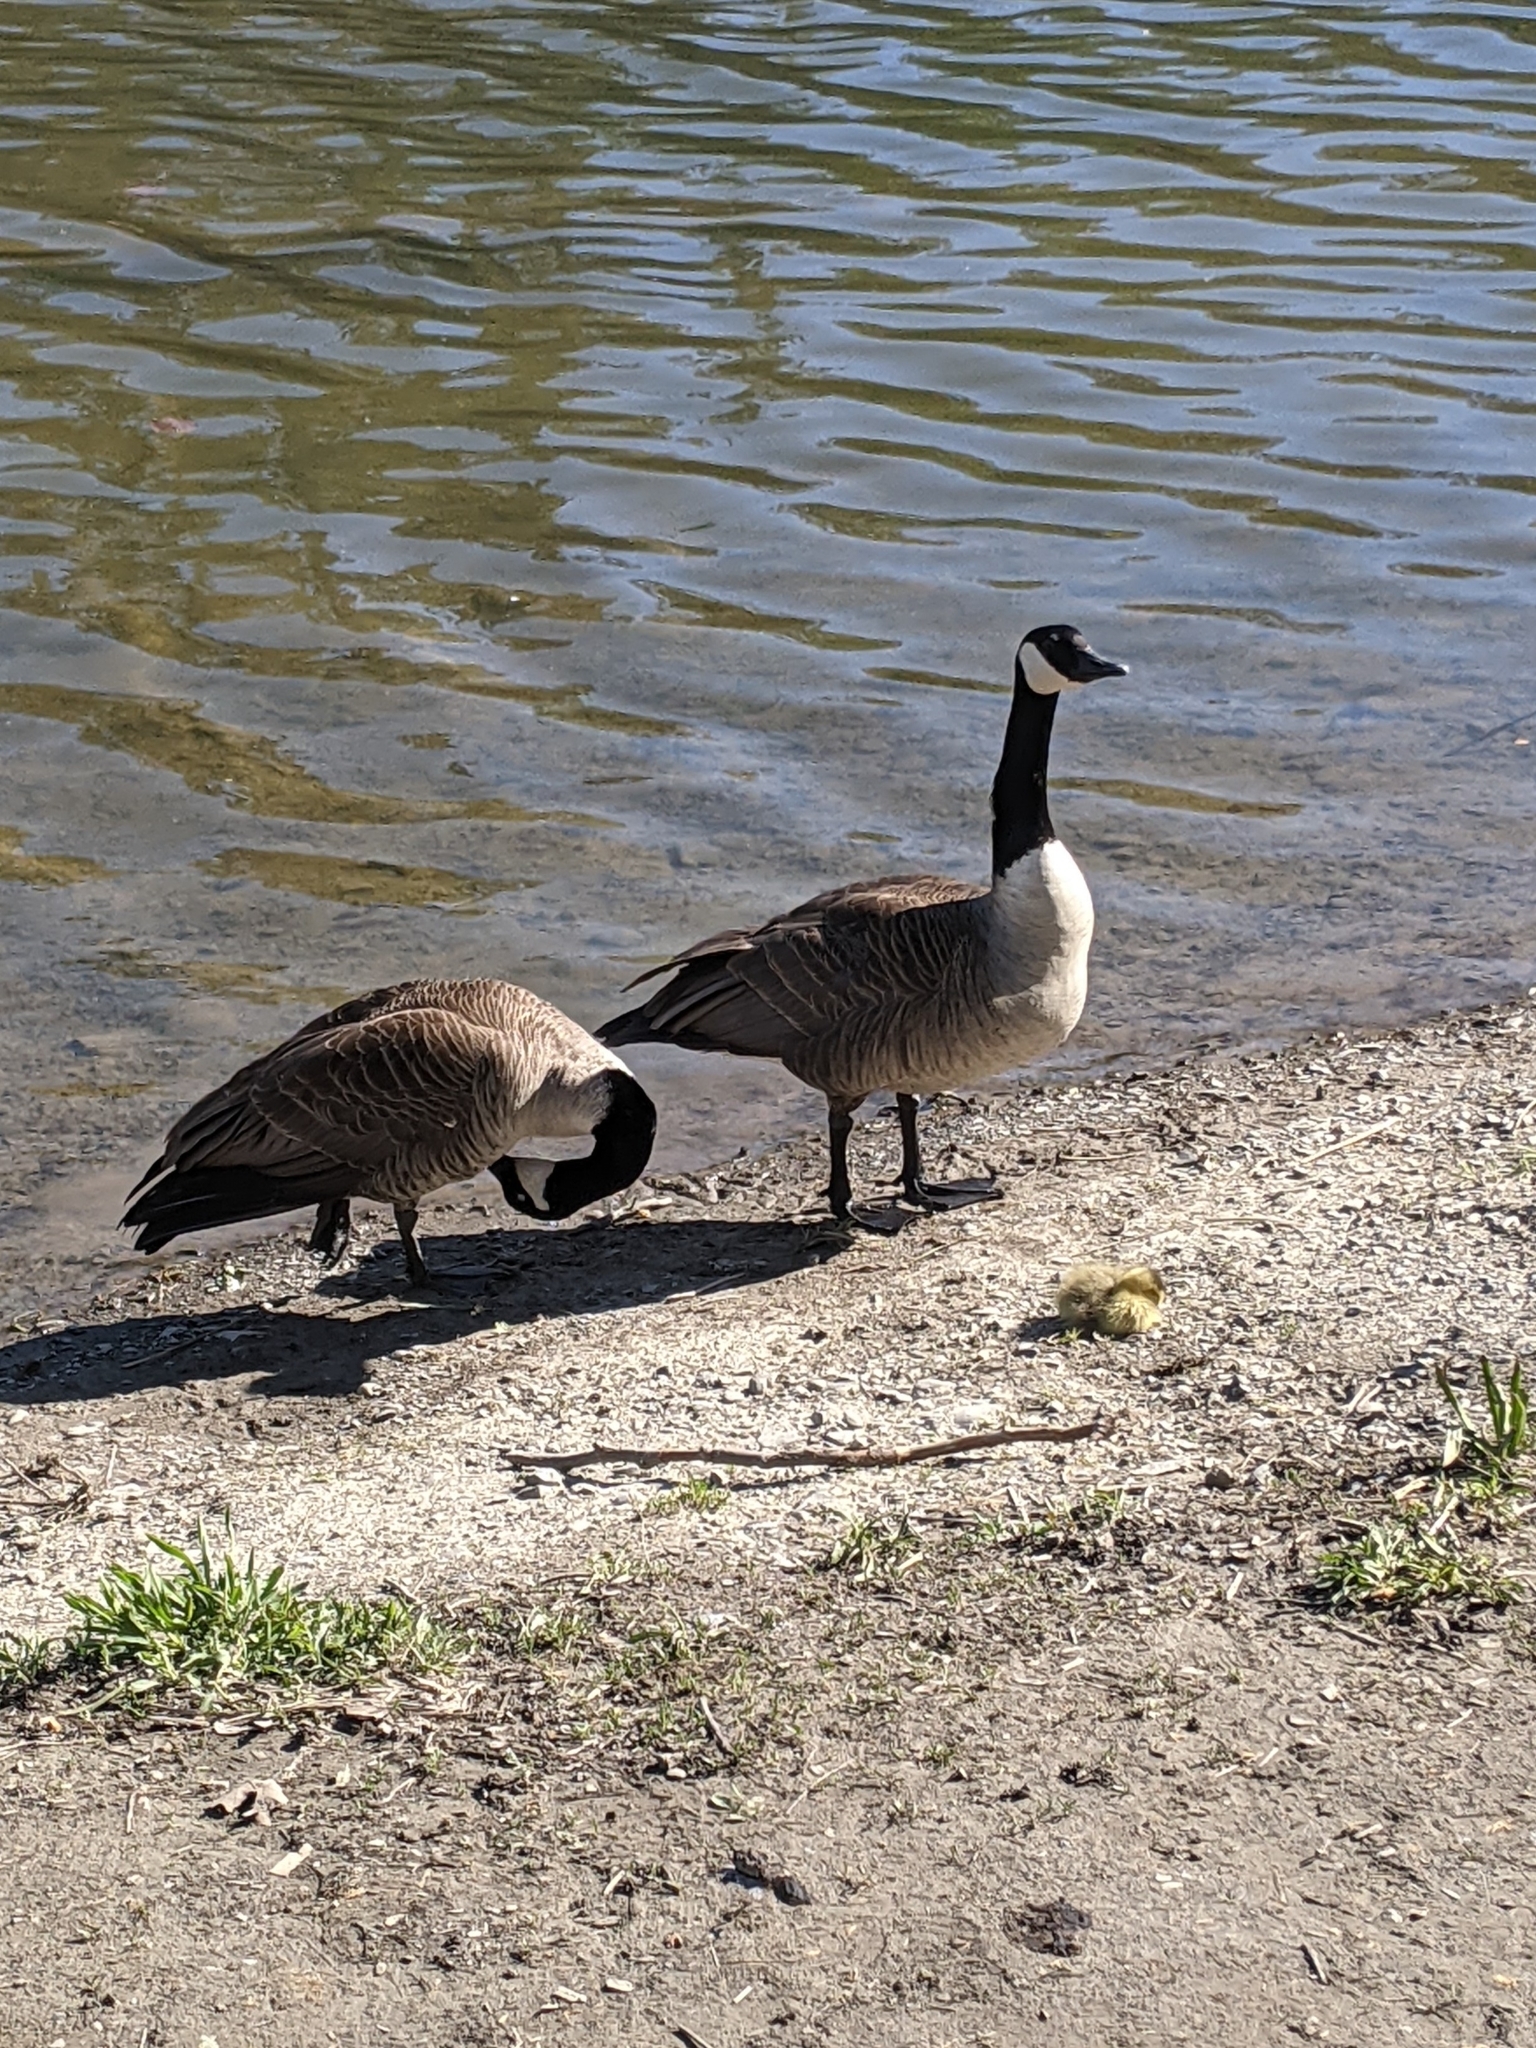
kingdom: Animalia
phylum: Chordata
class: Aves
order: Anseriformes
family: Anatidae
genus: Branta
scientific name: Branta canadensis
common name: Canada goose
